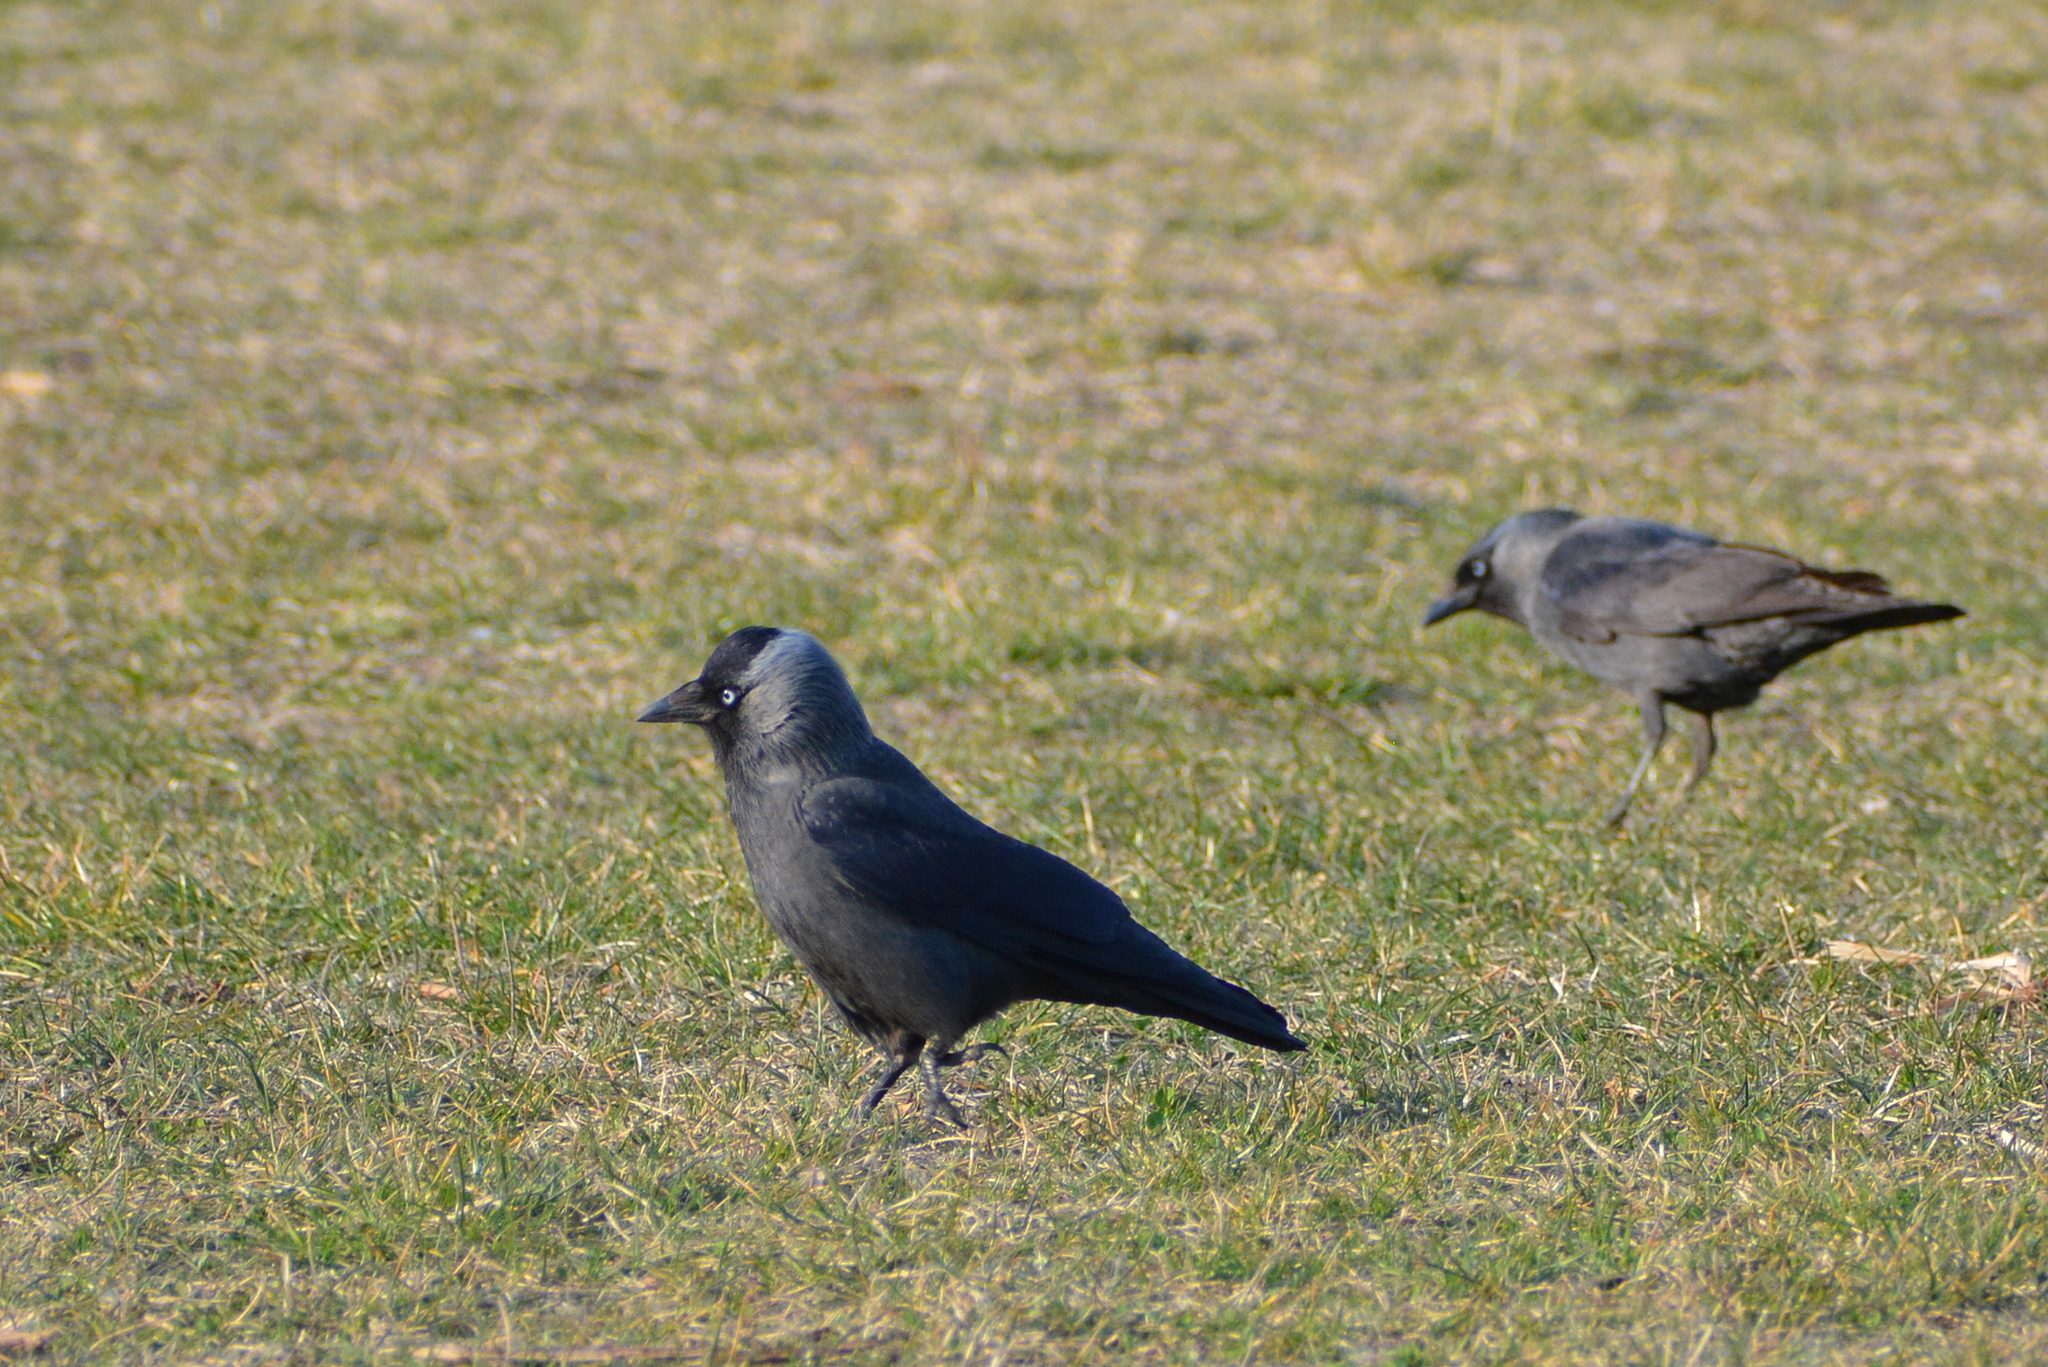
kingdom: Animalia
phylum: Chordata
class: Aves
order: Passeriformes
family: Corvidae
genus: Coloeus
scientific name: Coloeus monedula
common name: Western jackdaw
